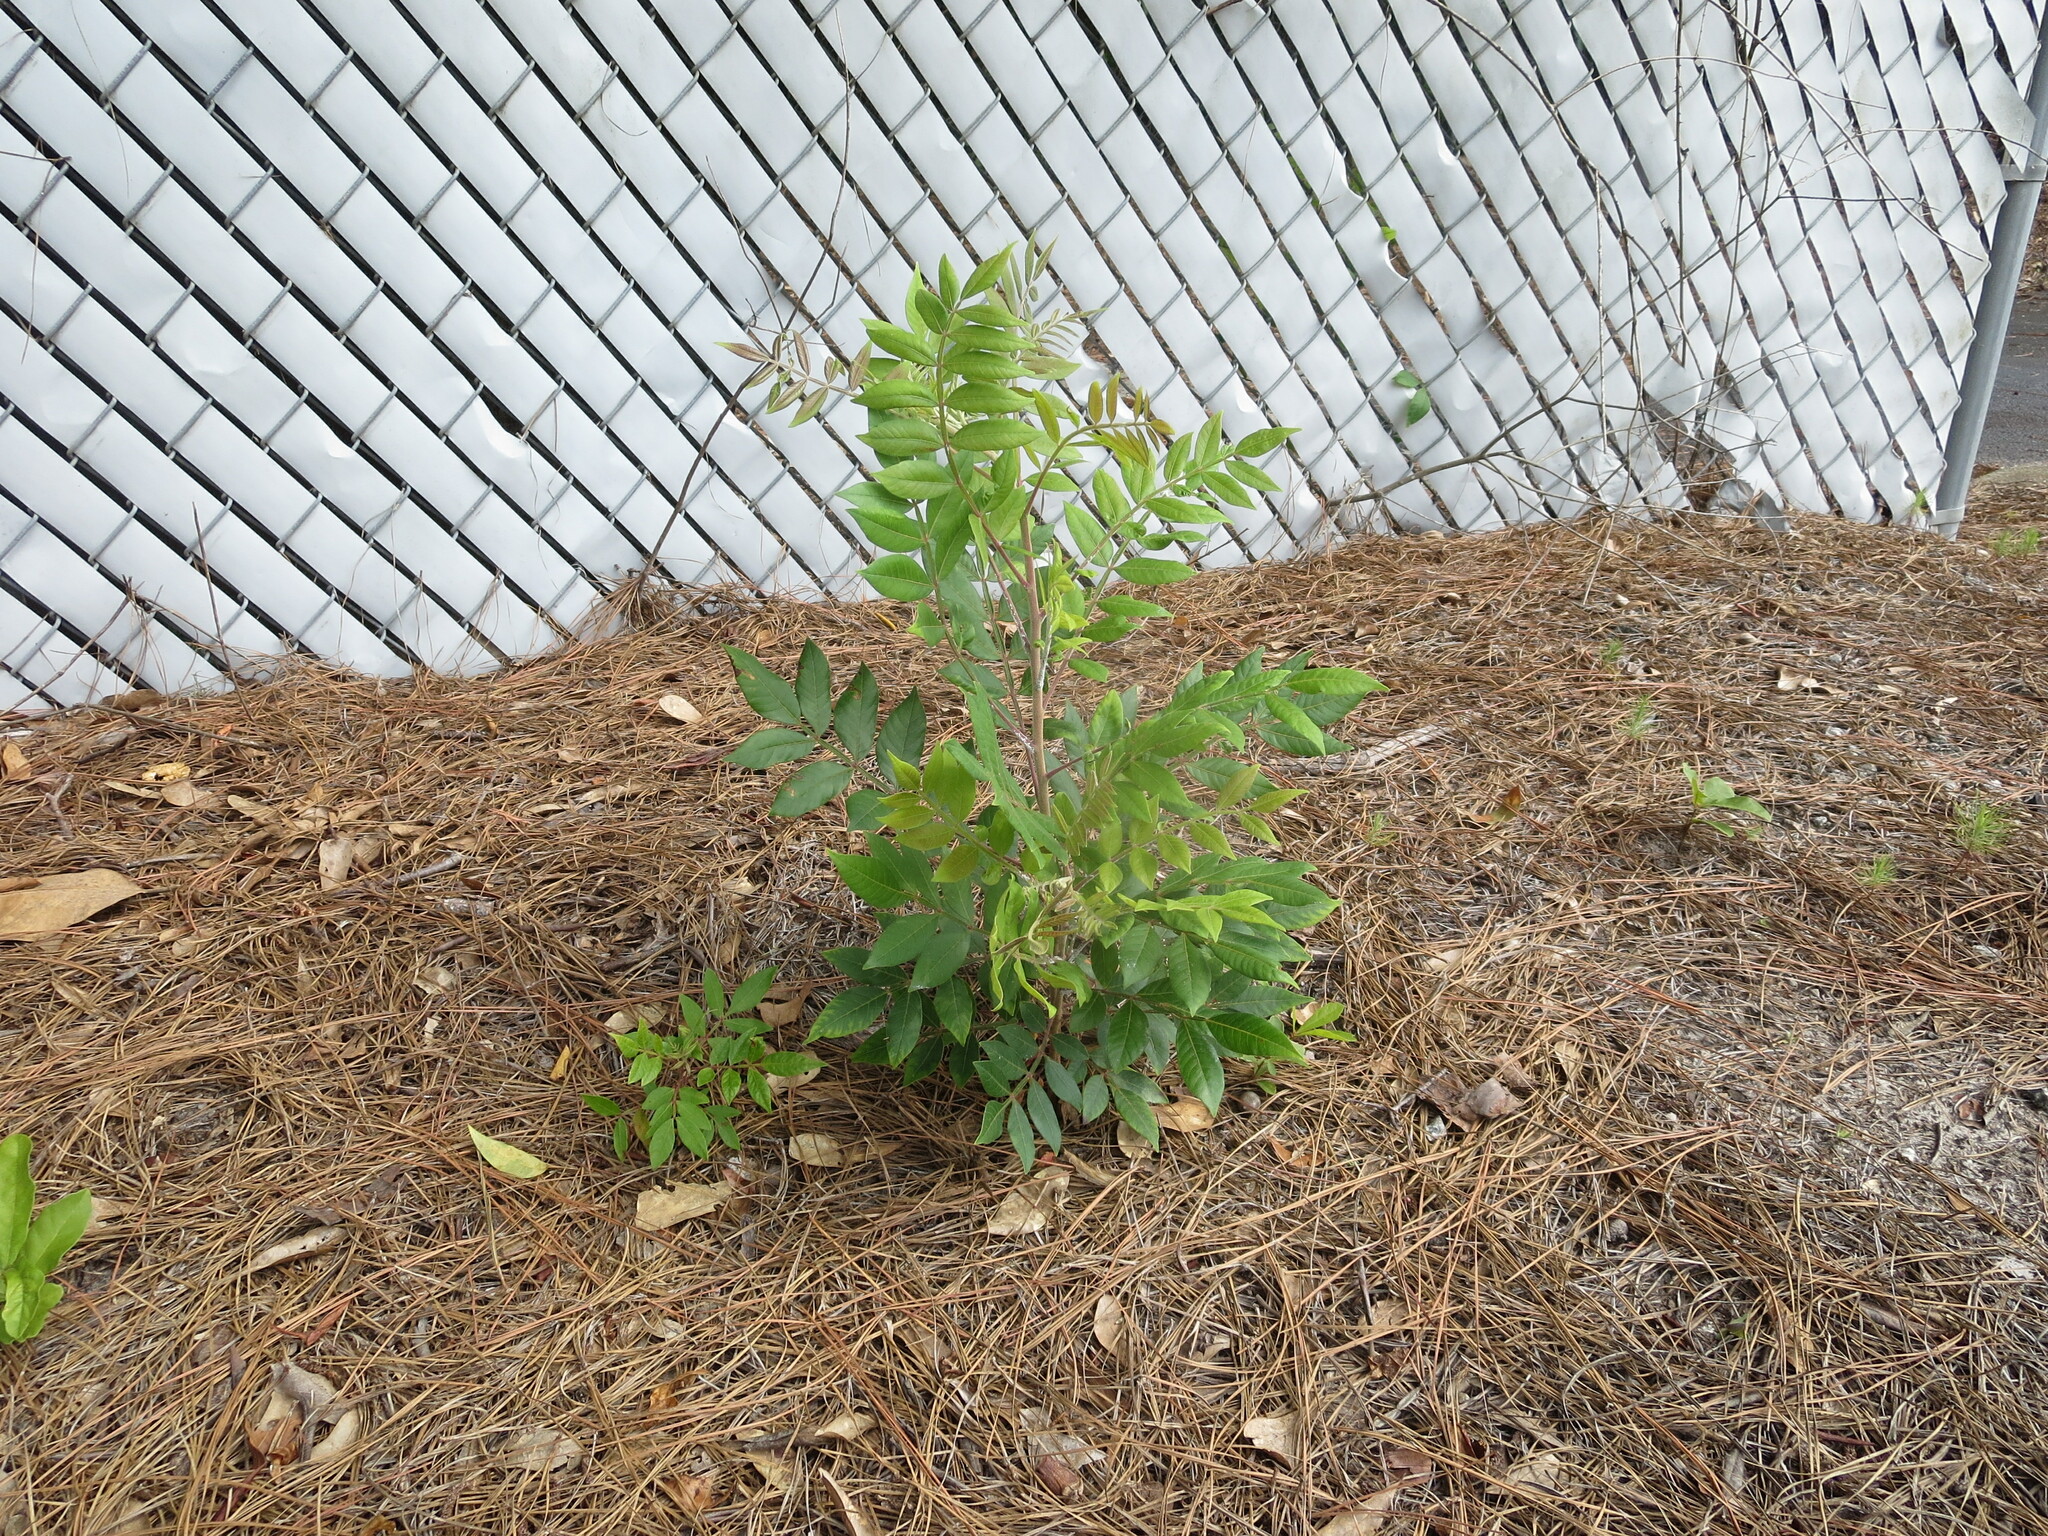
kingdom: Plantae
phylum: Tracheophyta
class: Magnoliopsida
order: Sapindales
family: Anacardiaceae
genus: Rhus
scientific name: Rhus copallina
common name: Shining sumac
